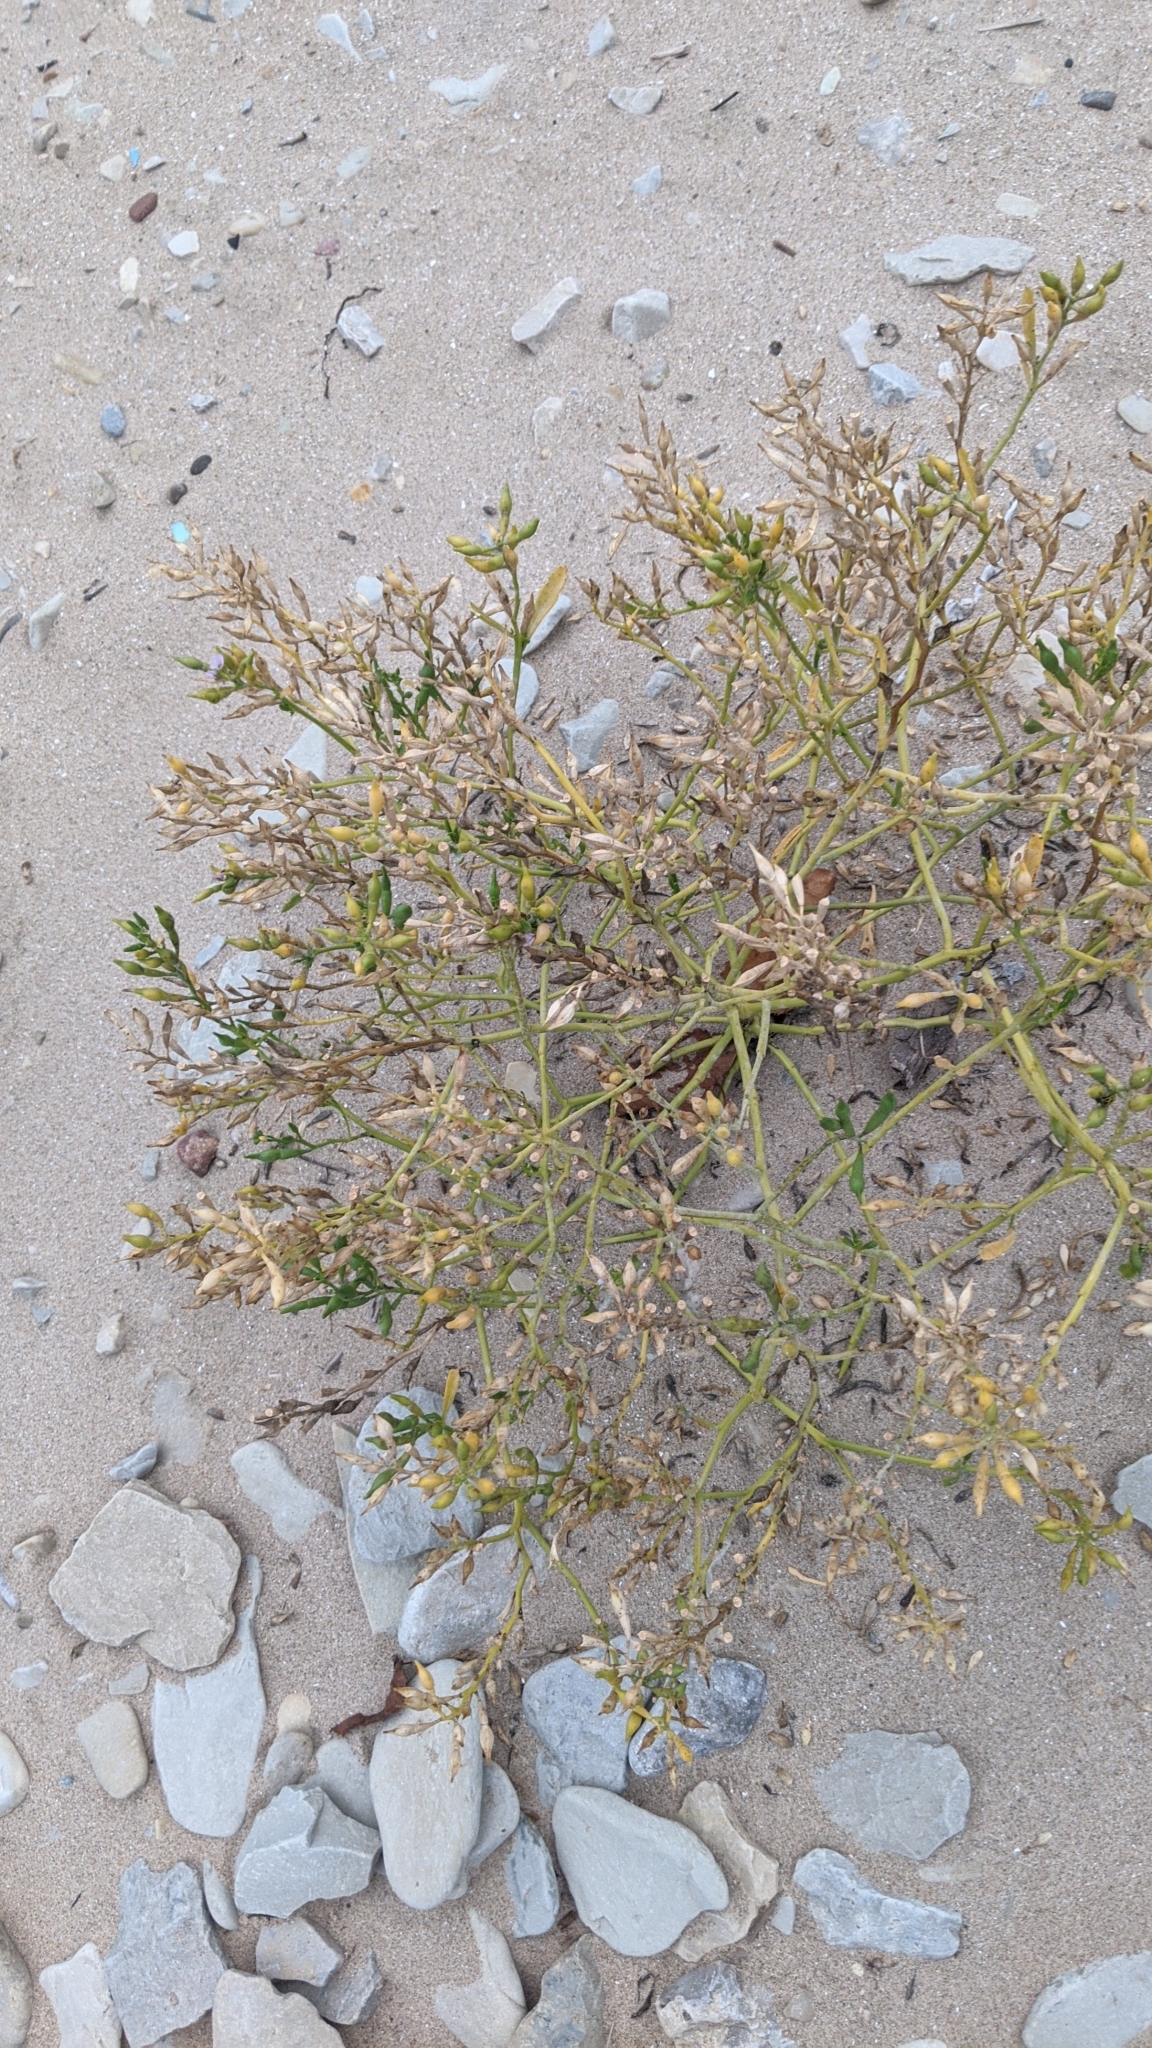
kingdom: Plantae
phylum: Tracheophyta
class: Magnoliopsida
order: Brassicales
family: Brassicaceae
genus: Cakile
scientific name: Cakile edentula
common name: American sea rocket
